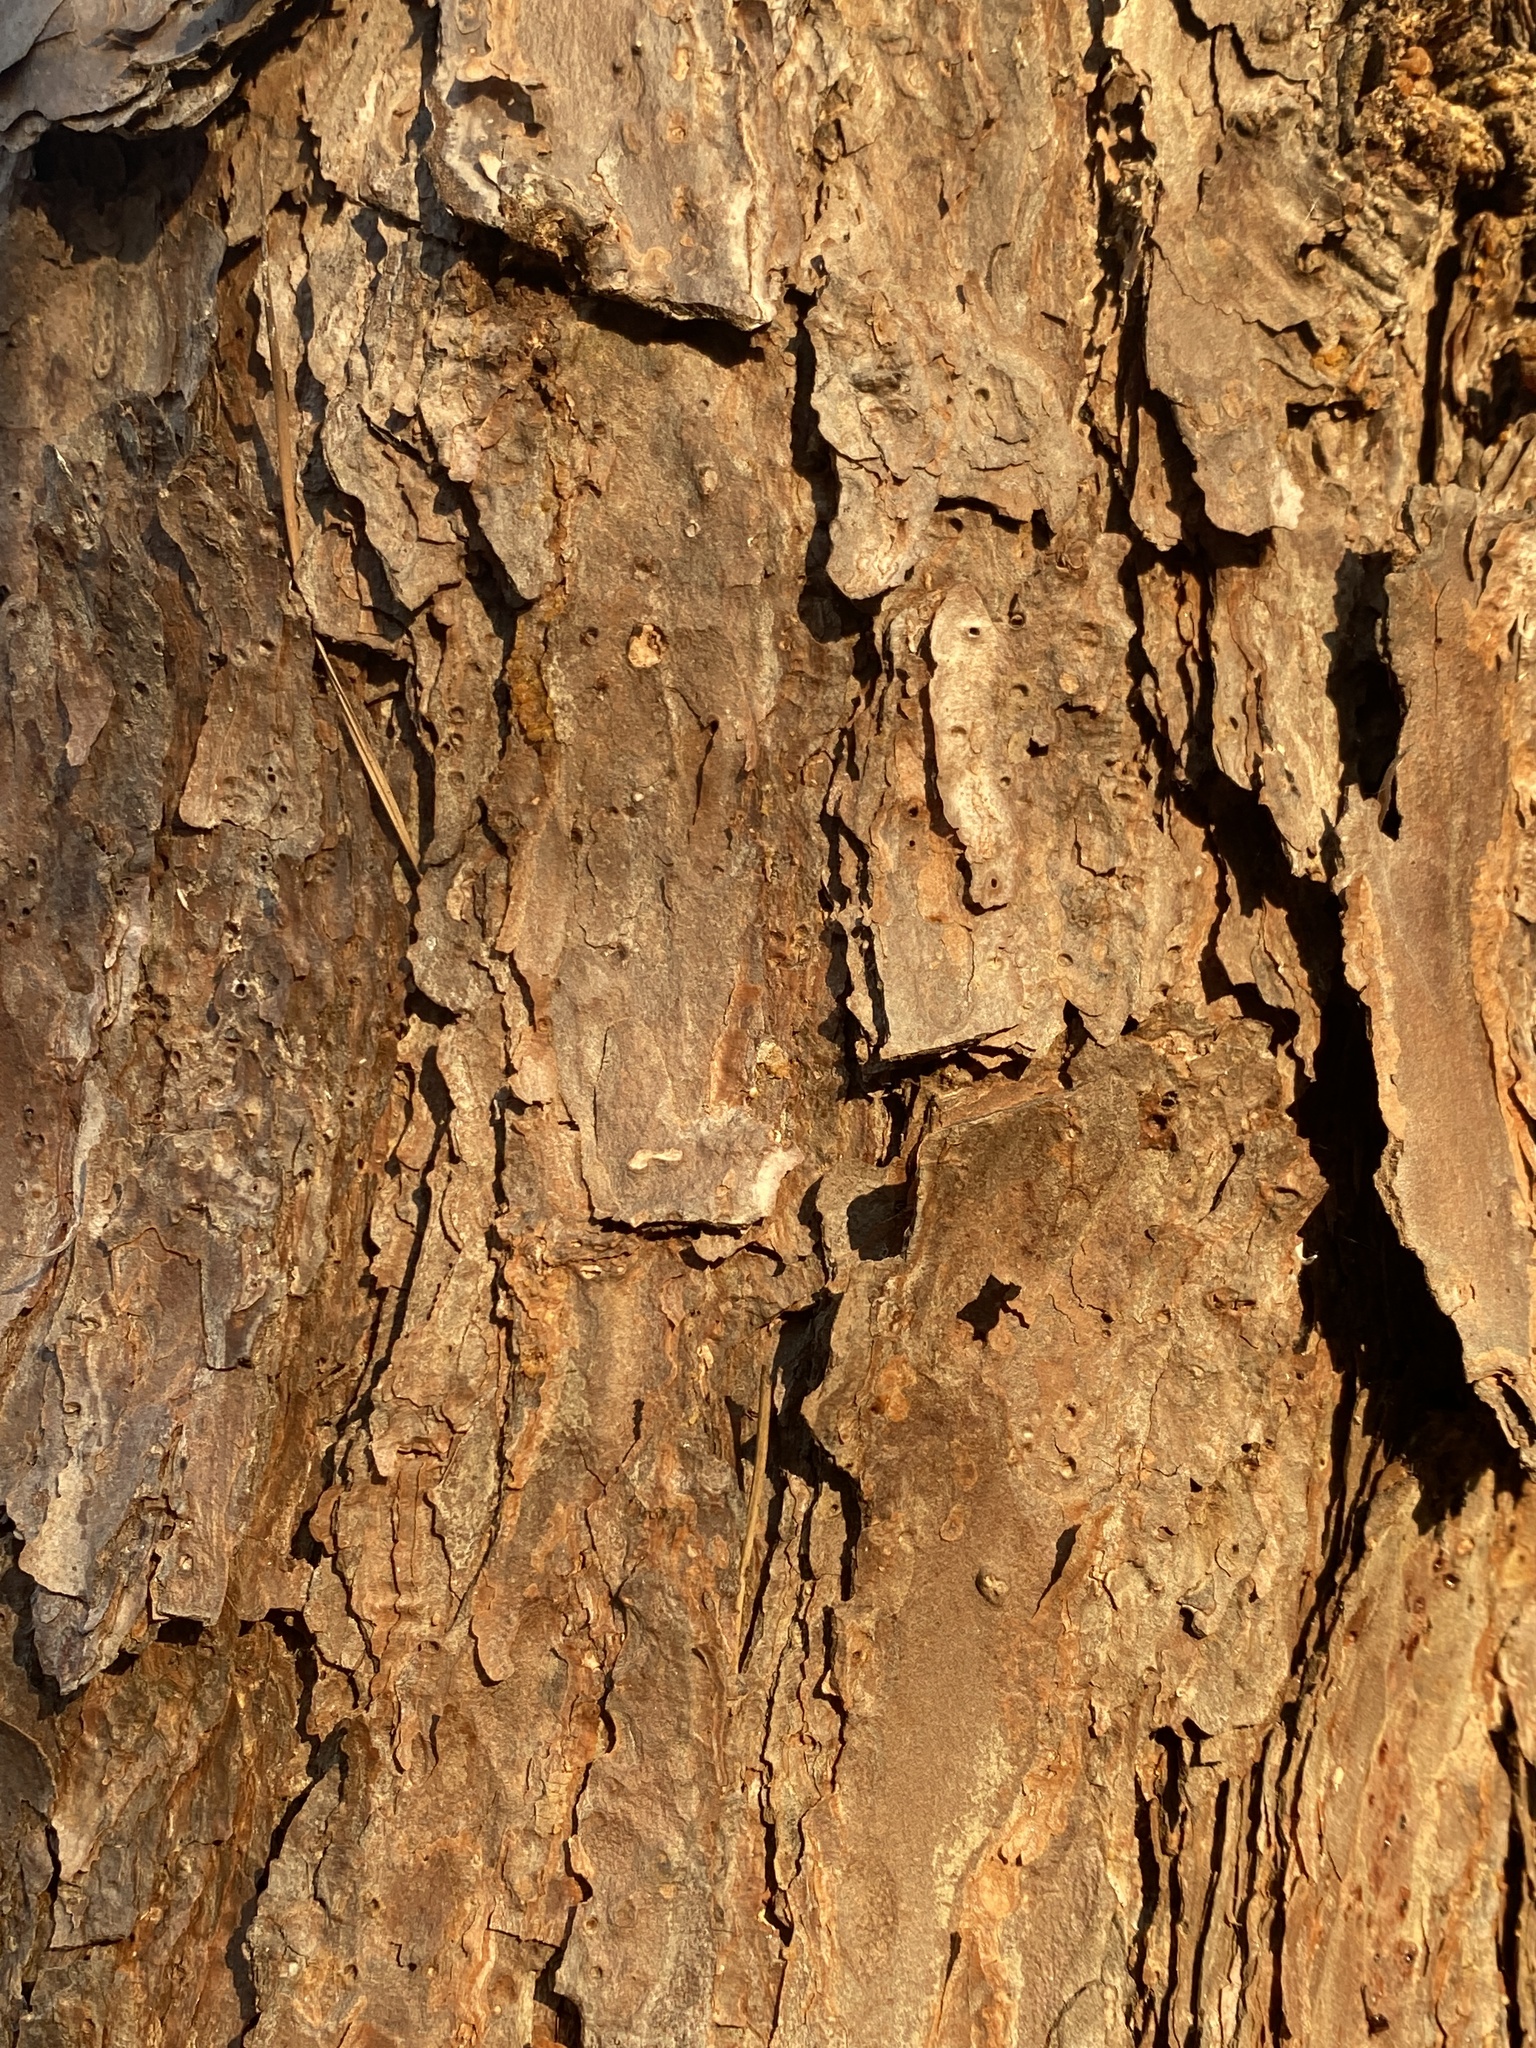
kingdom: Plantae
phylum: Tracheophyta
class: Pinopsida
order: Pinales
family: Pinaceae
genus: Pinus
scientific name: Pinus echinata
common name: Shortleaf pine
